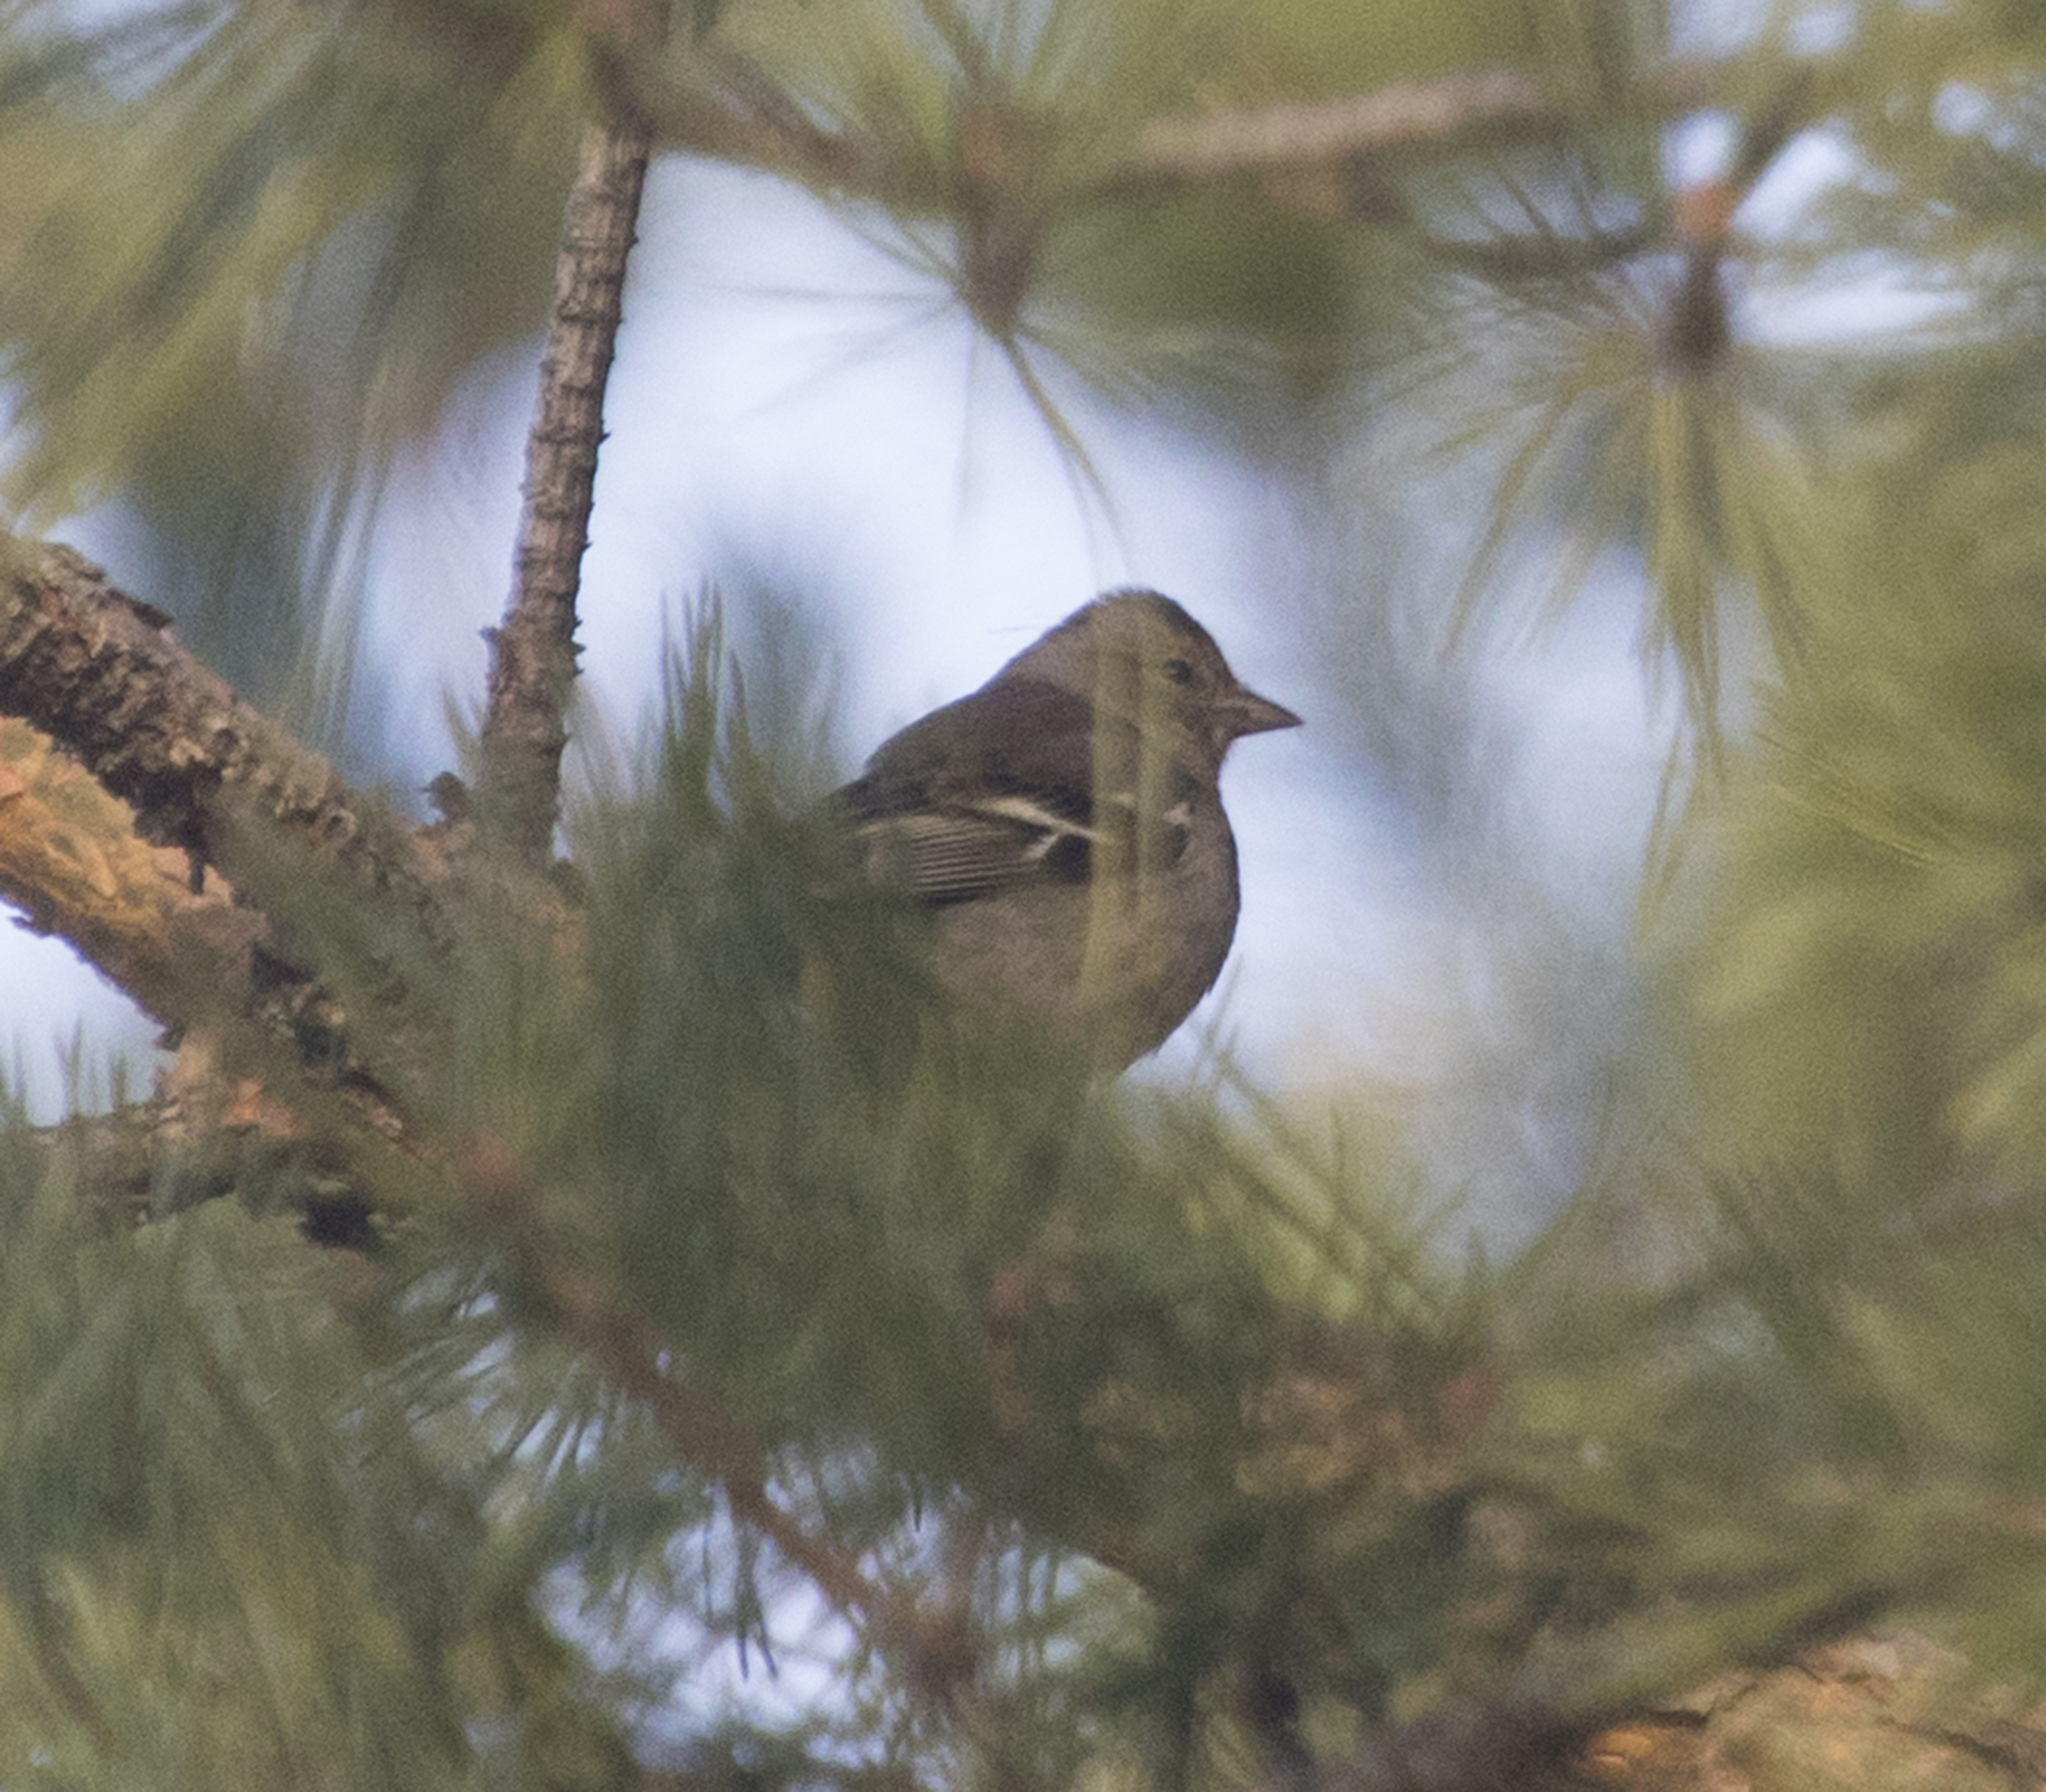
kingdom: Animalia
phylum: Chordata
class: Aves
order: Passeriformes
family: Fringillidae
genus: Fringilla
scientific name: Fringilla coelebs
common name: Common chaffinch
